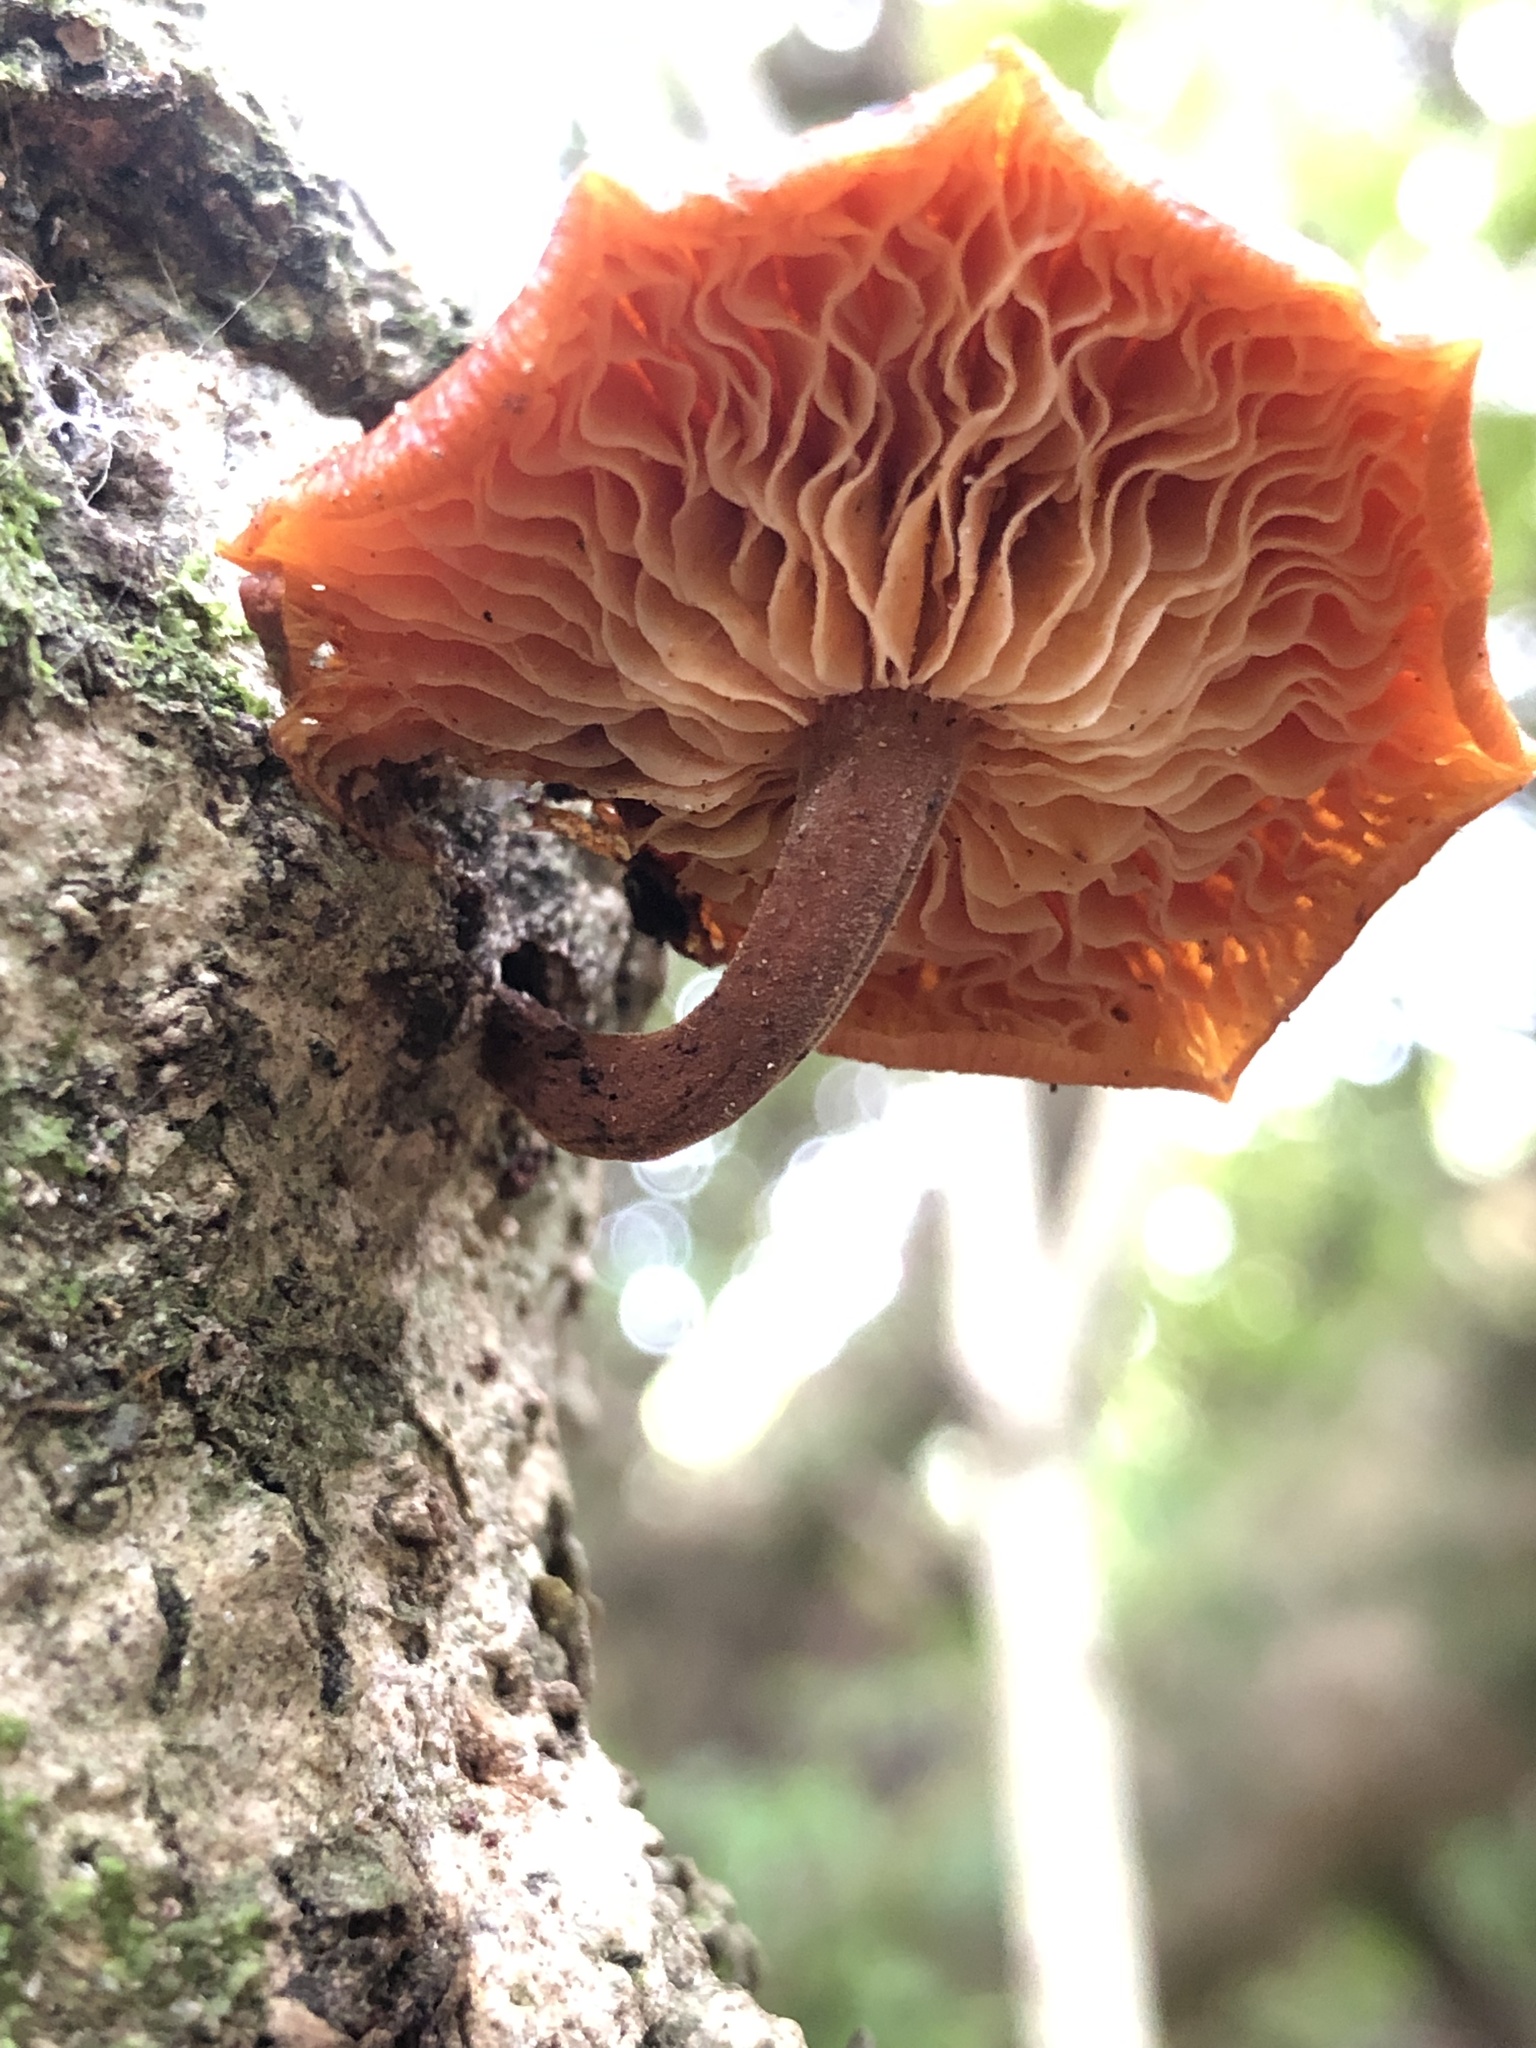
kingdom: Fungi
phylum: Basidiomycota
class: Agaricomycetes
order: Agaricales
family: Physalacriaceae
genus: Flammulina
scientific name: Flammulina velutipes
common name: Velvet shank
